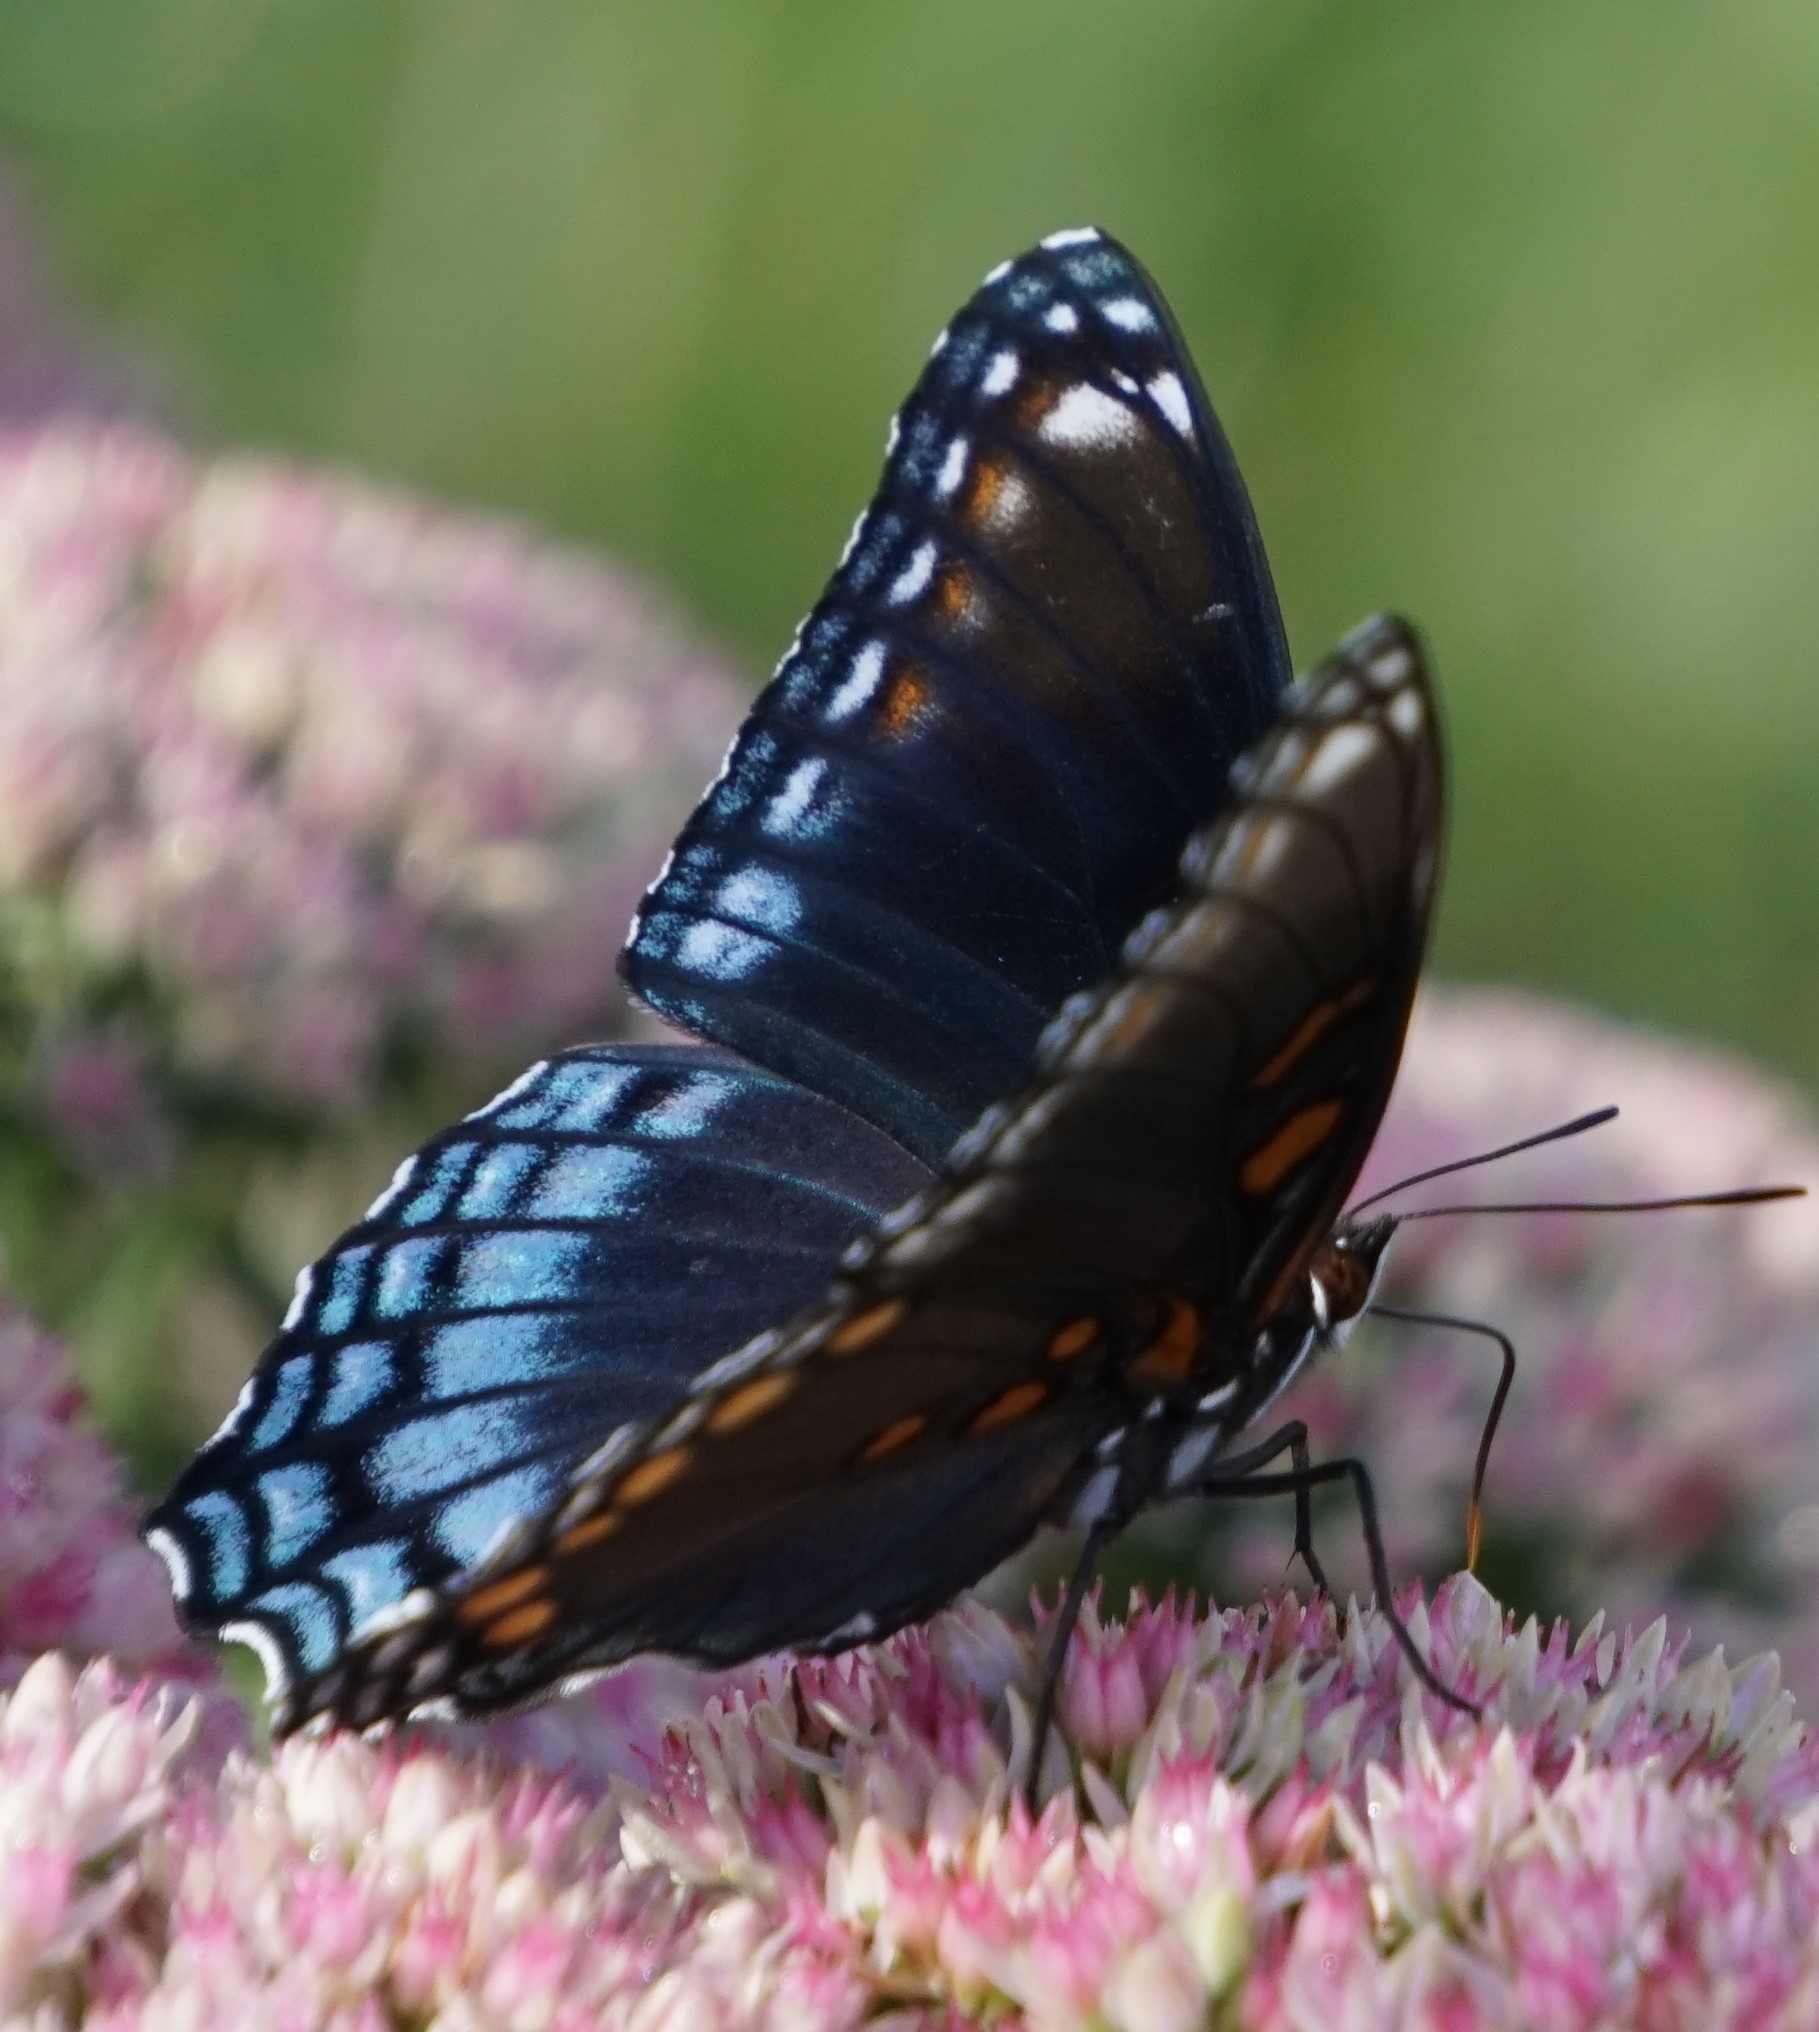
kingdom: Animalia
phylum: Arthropoda
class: Insecta
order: Lepidoptera
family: Nymphalidae
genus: Limenitis
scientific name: Limenitis astyanax
